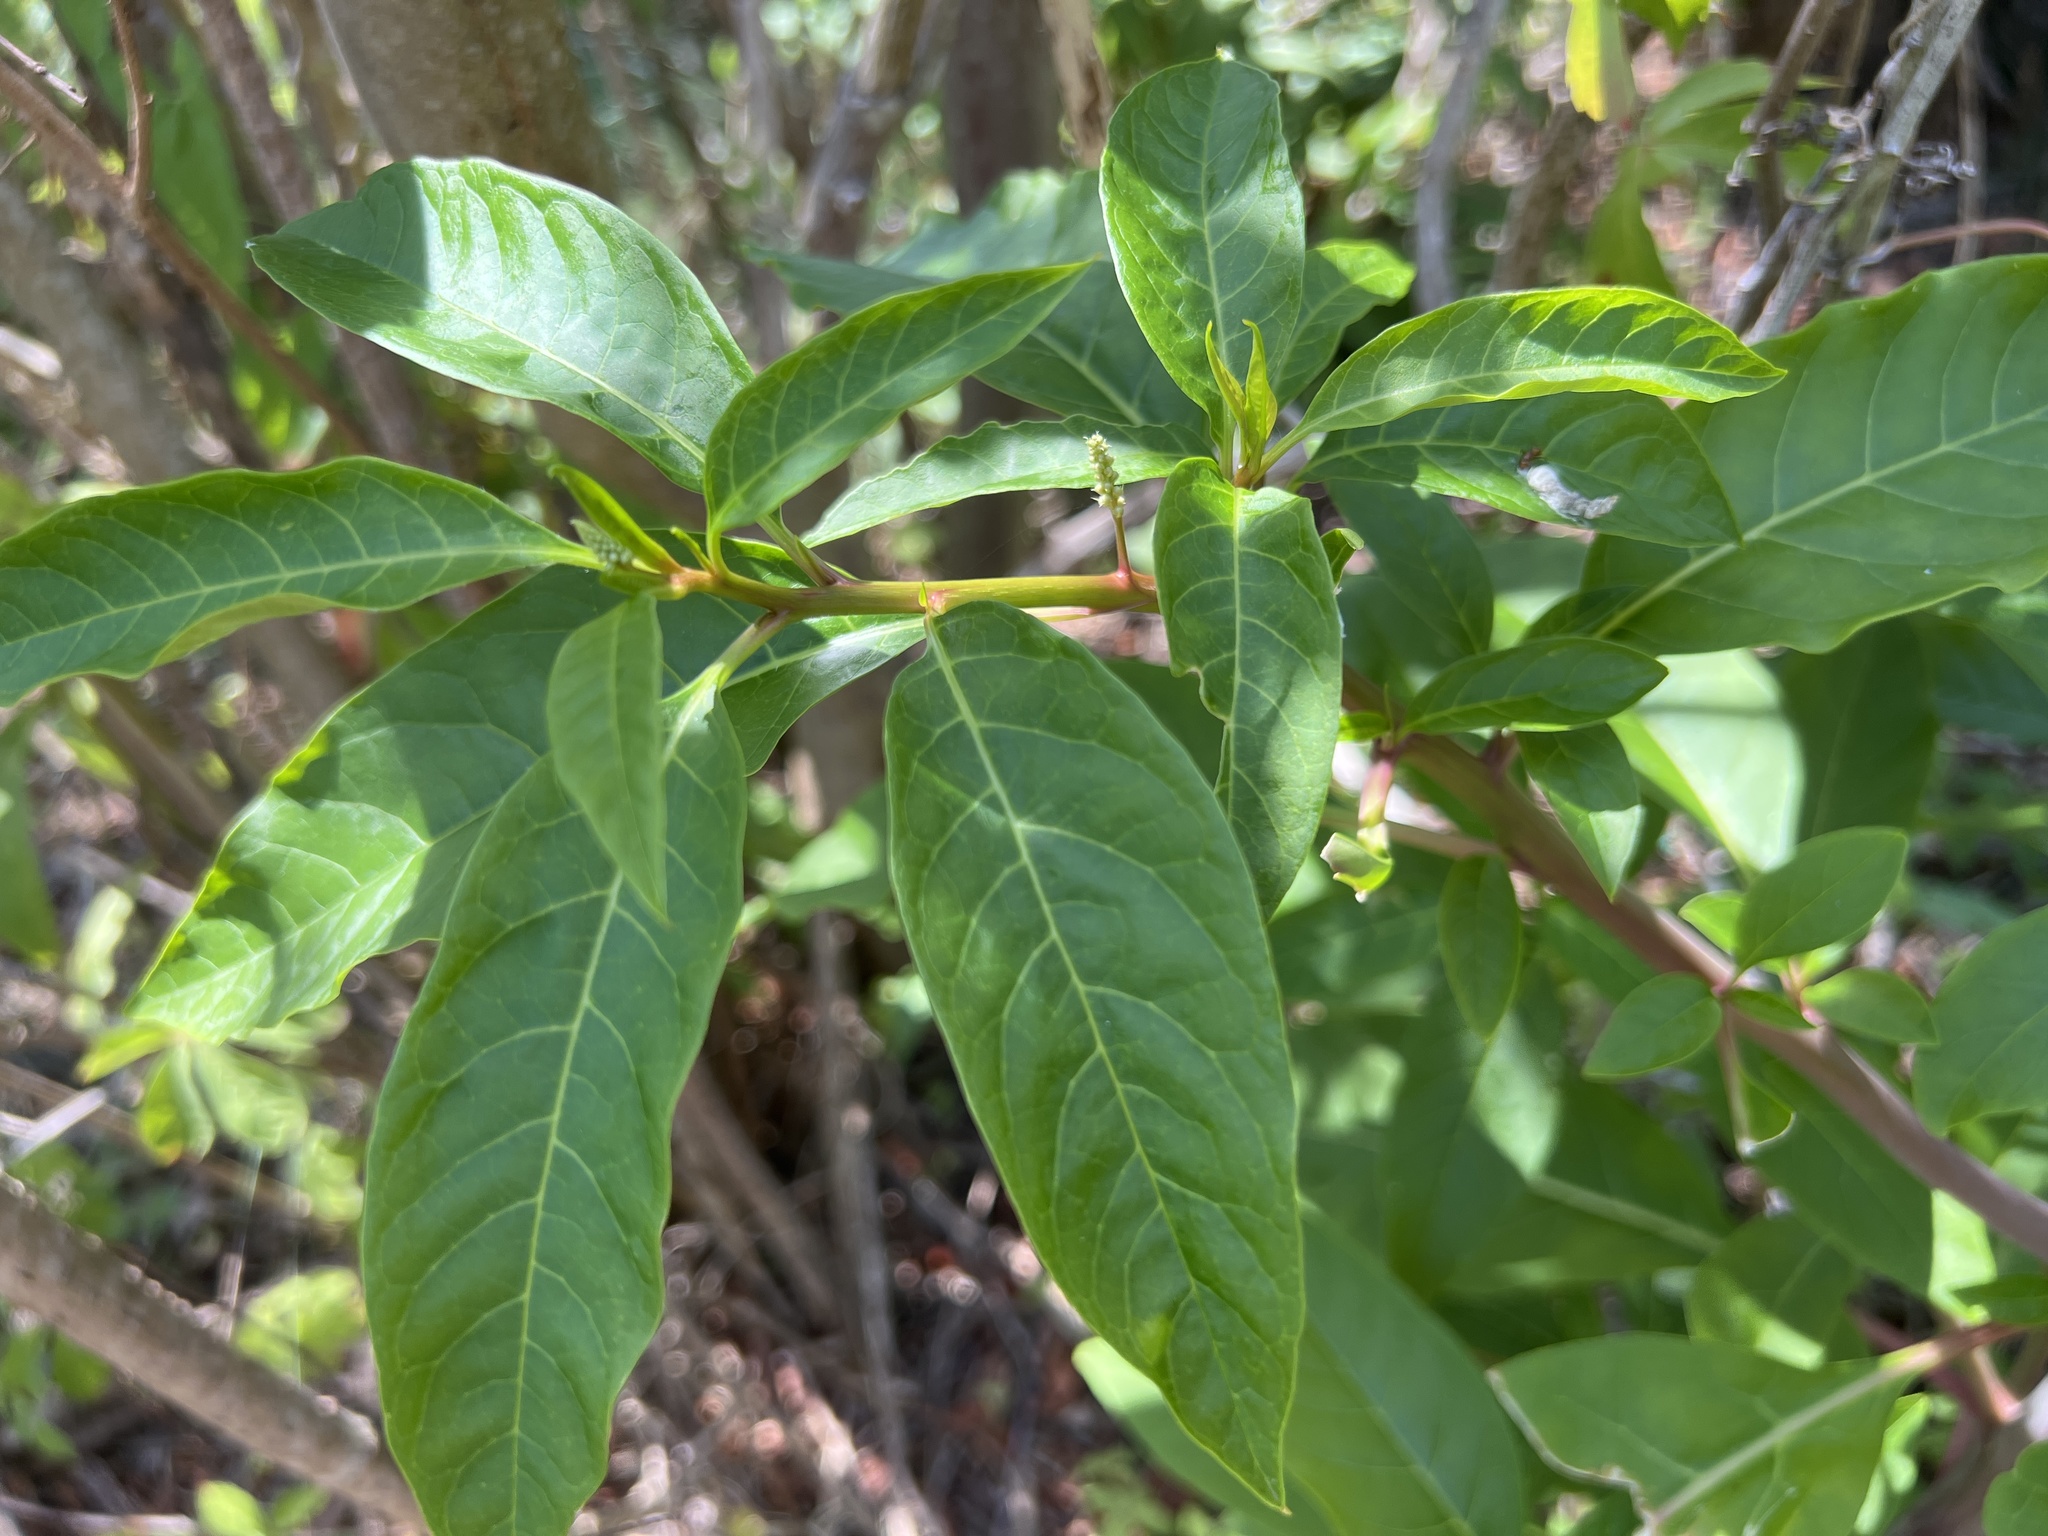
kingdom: Plantae
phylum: Tracheophyta
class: Magnoliopsida
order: Caryophyllales
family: Phytolaccaceae
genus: Phytolacca
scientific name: Phytolacca americana
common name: American pokeweed
